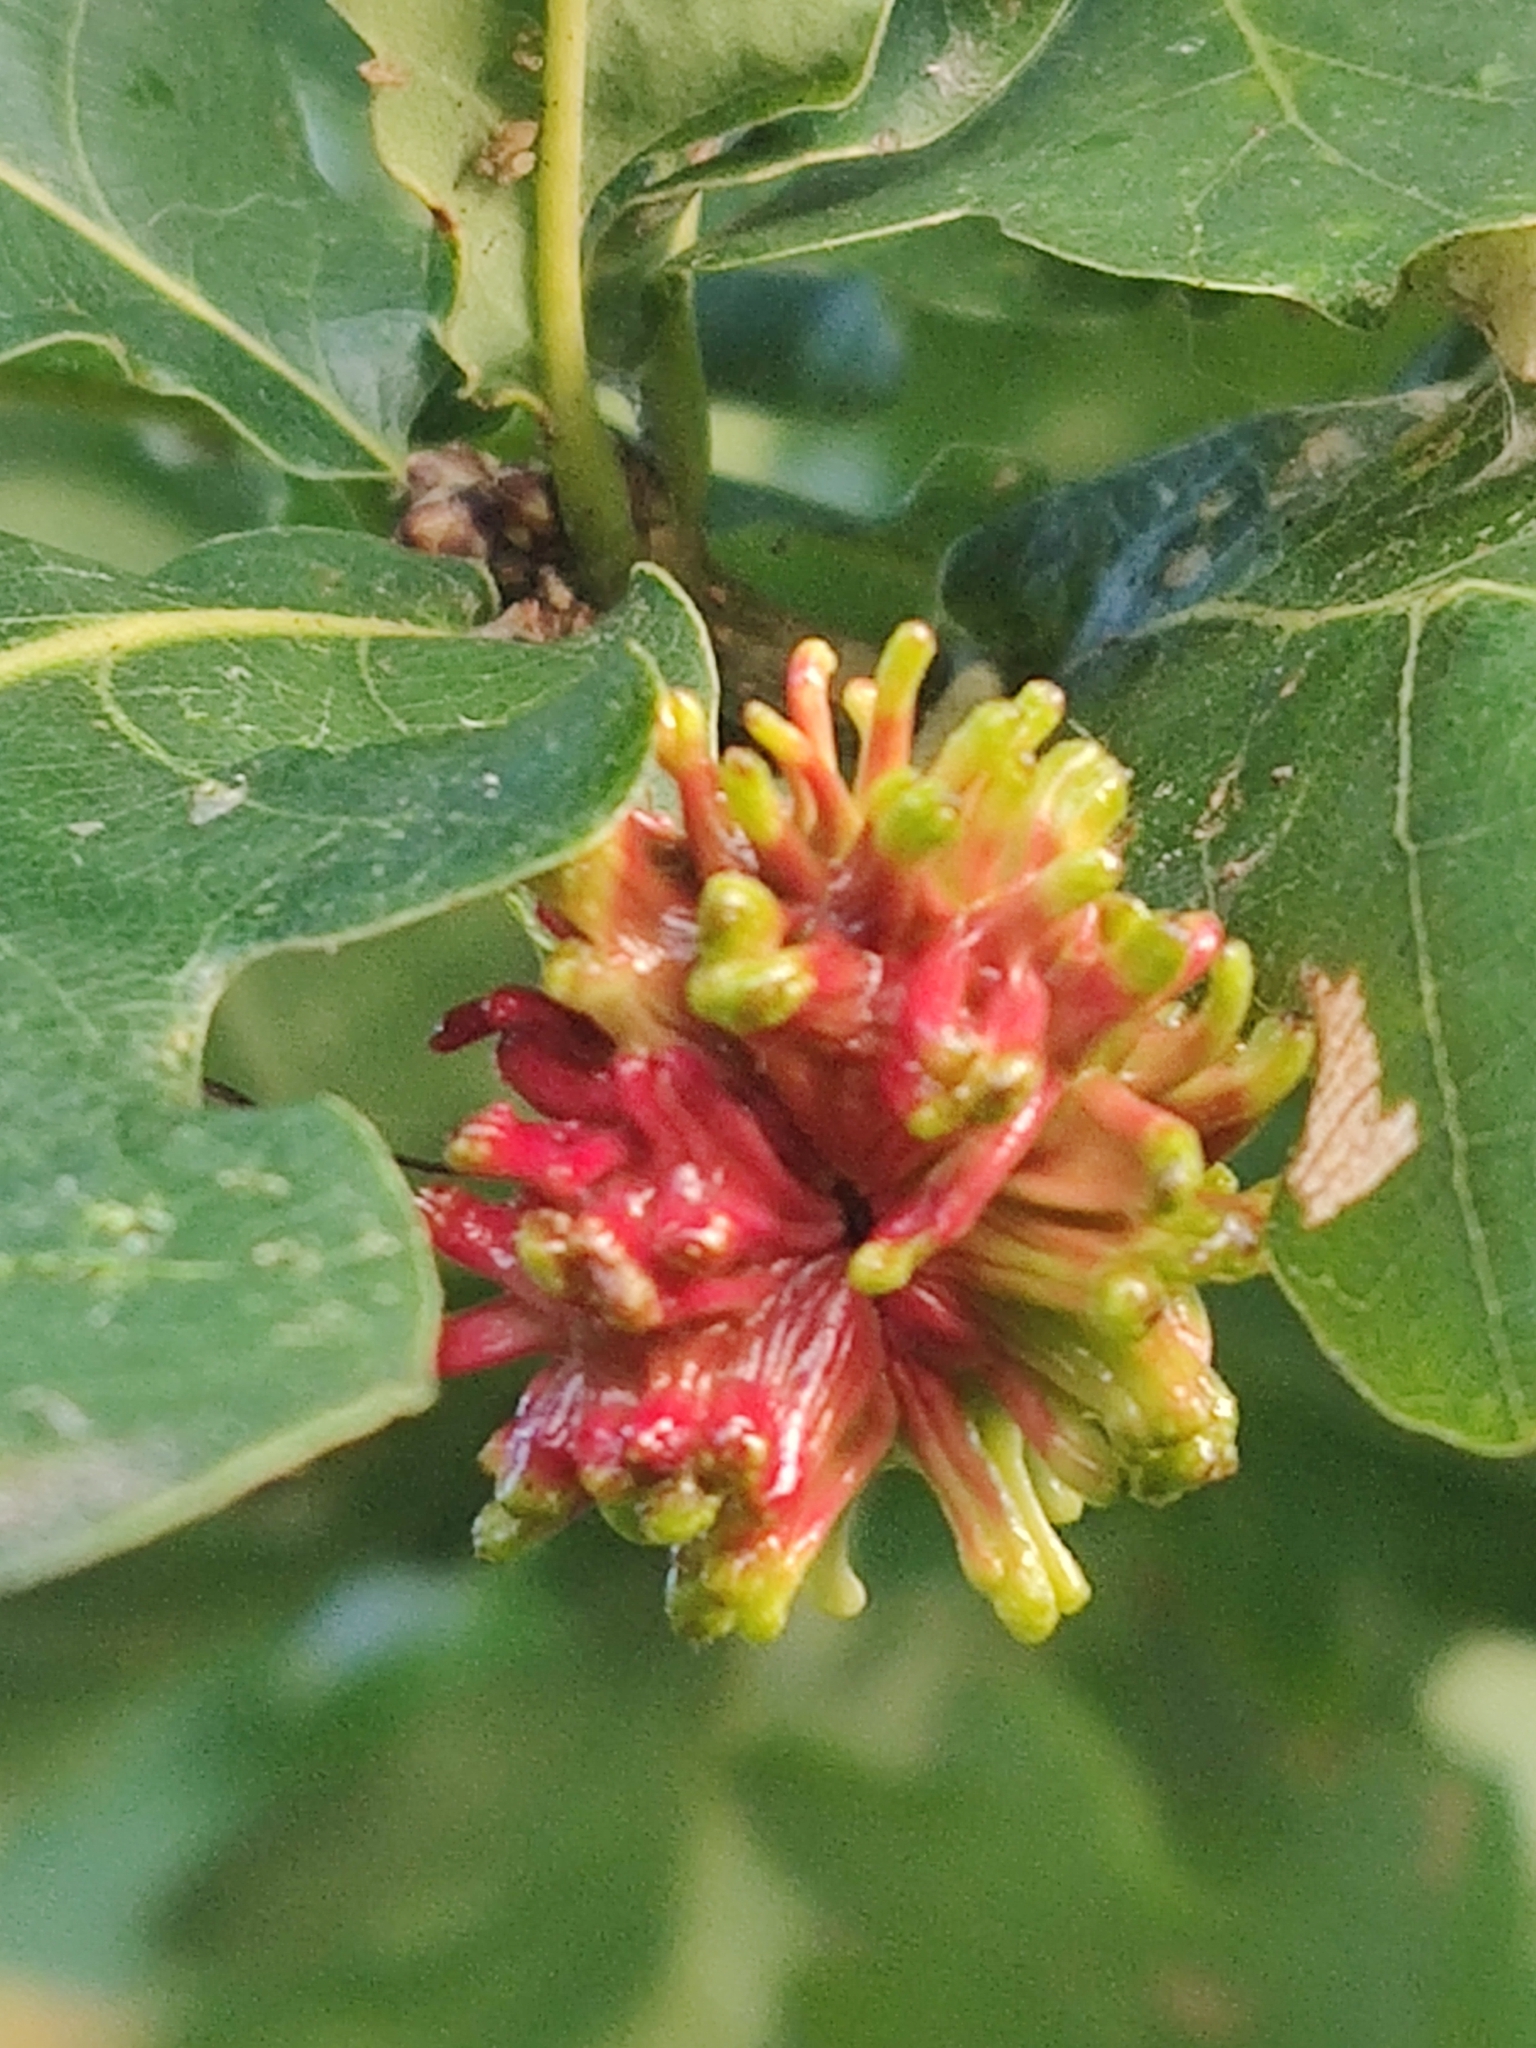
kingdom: Animalia
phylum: Arthropoda
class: Insecta
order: Hymenoptera
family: Cynipidae
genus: Andricus
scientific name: Andricus grossulariae
